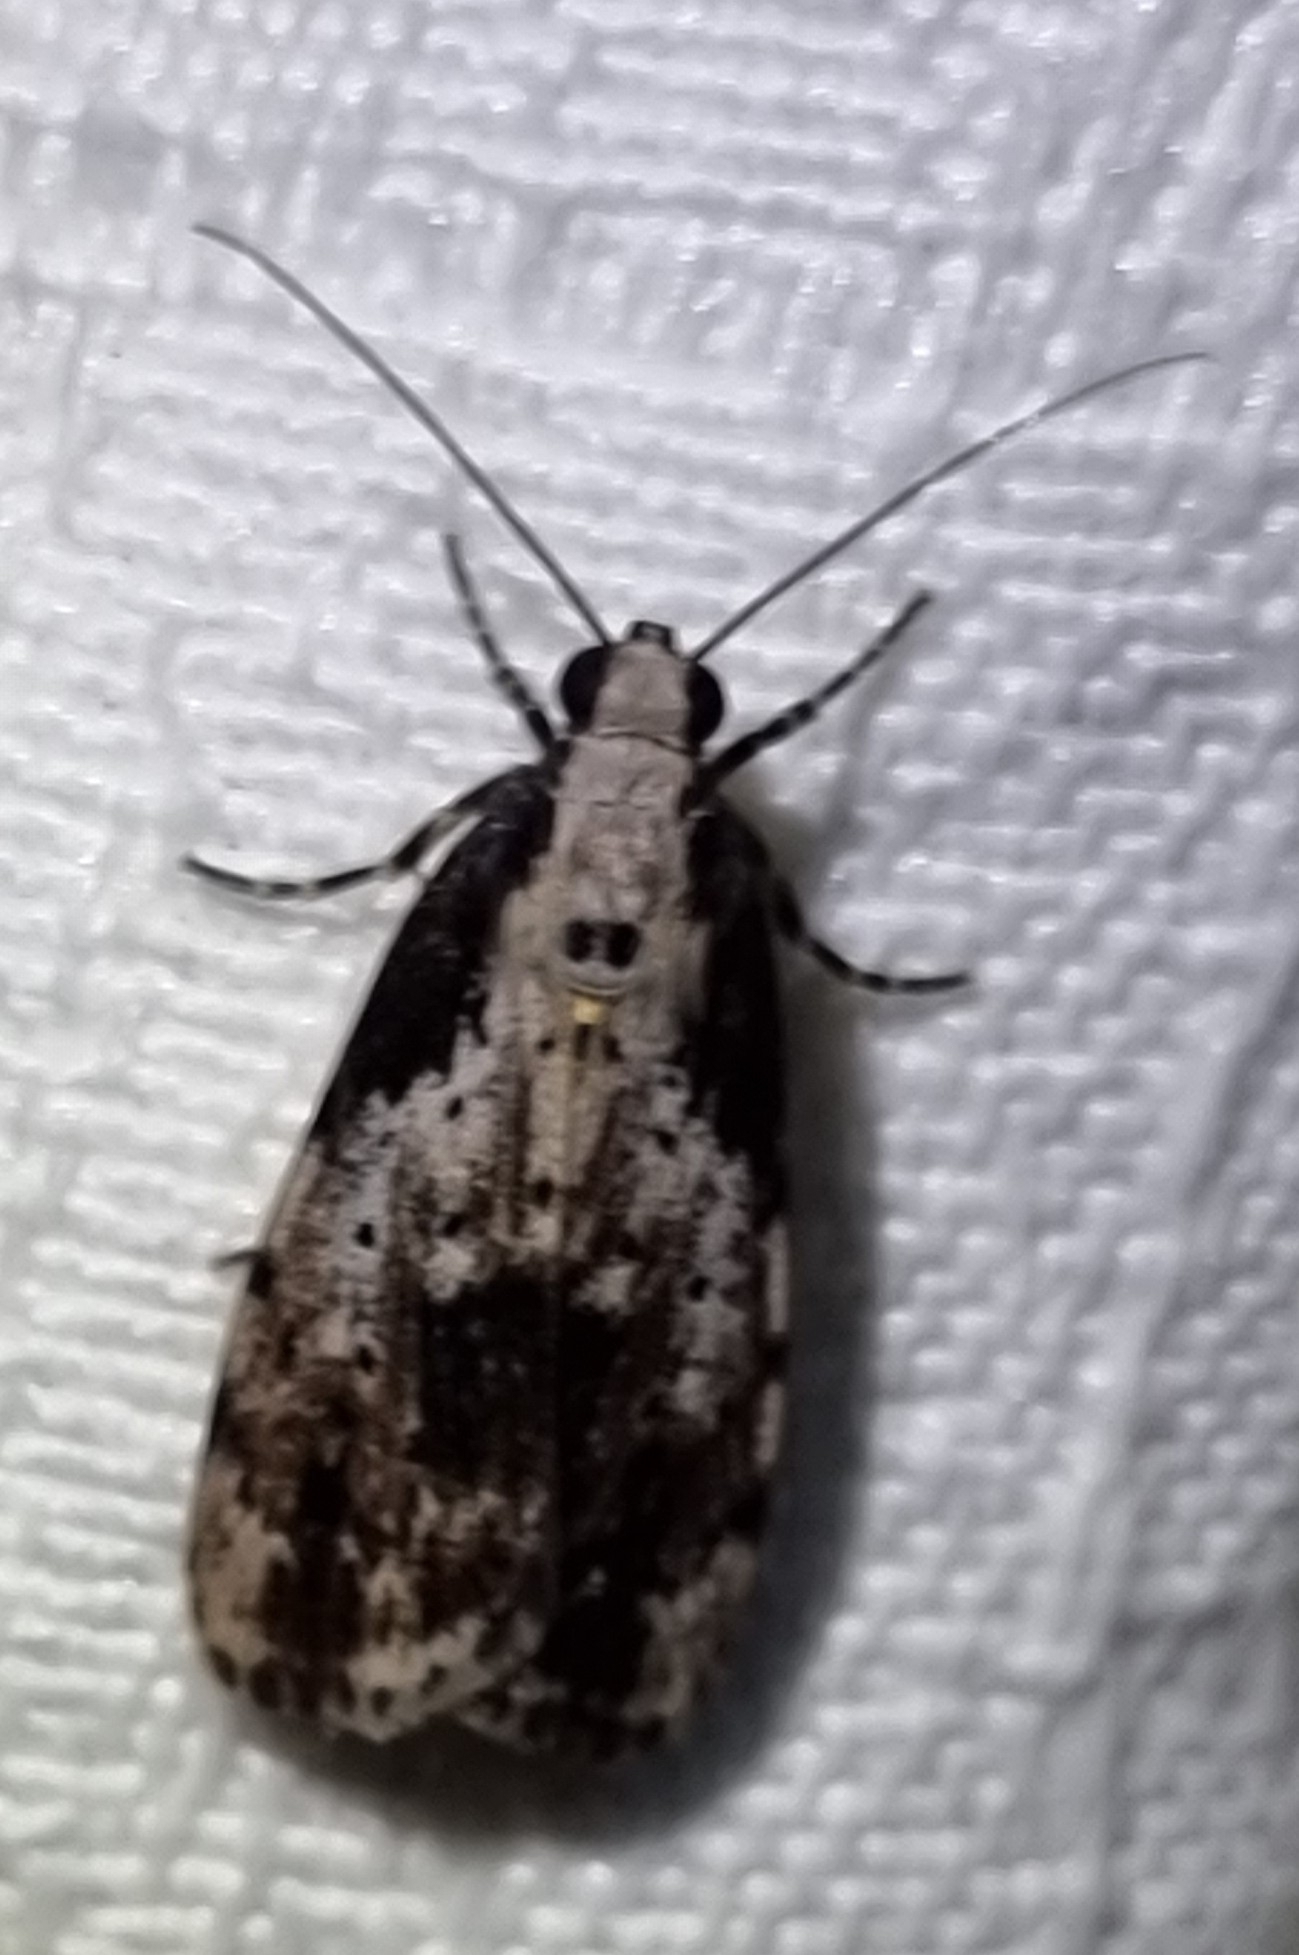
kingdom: Animalia
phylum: Arthropoda
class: Insecta
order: Lepidoptera
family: Erebidae
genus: Digama
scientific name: Digama Sommeria marmorea
